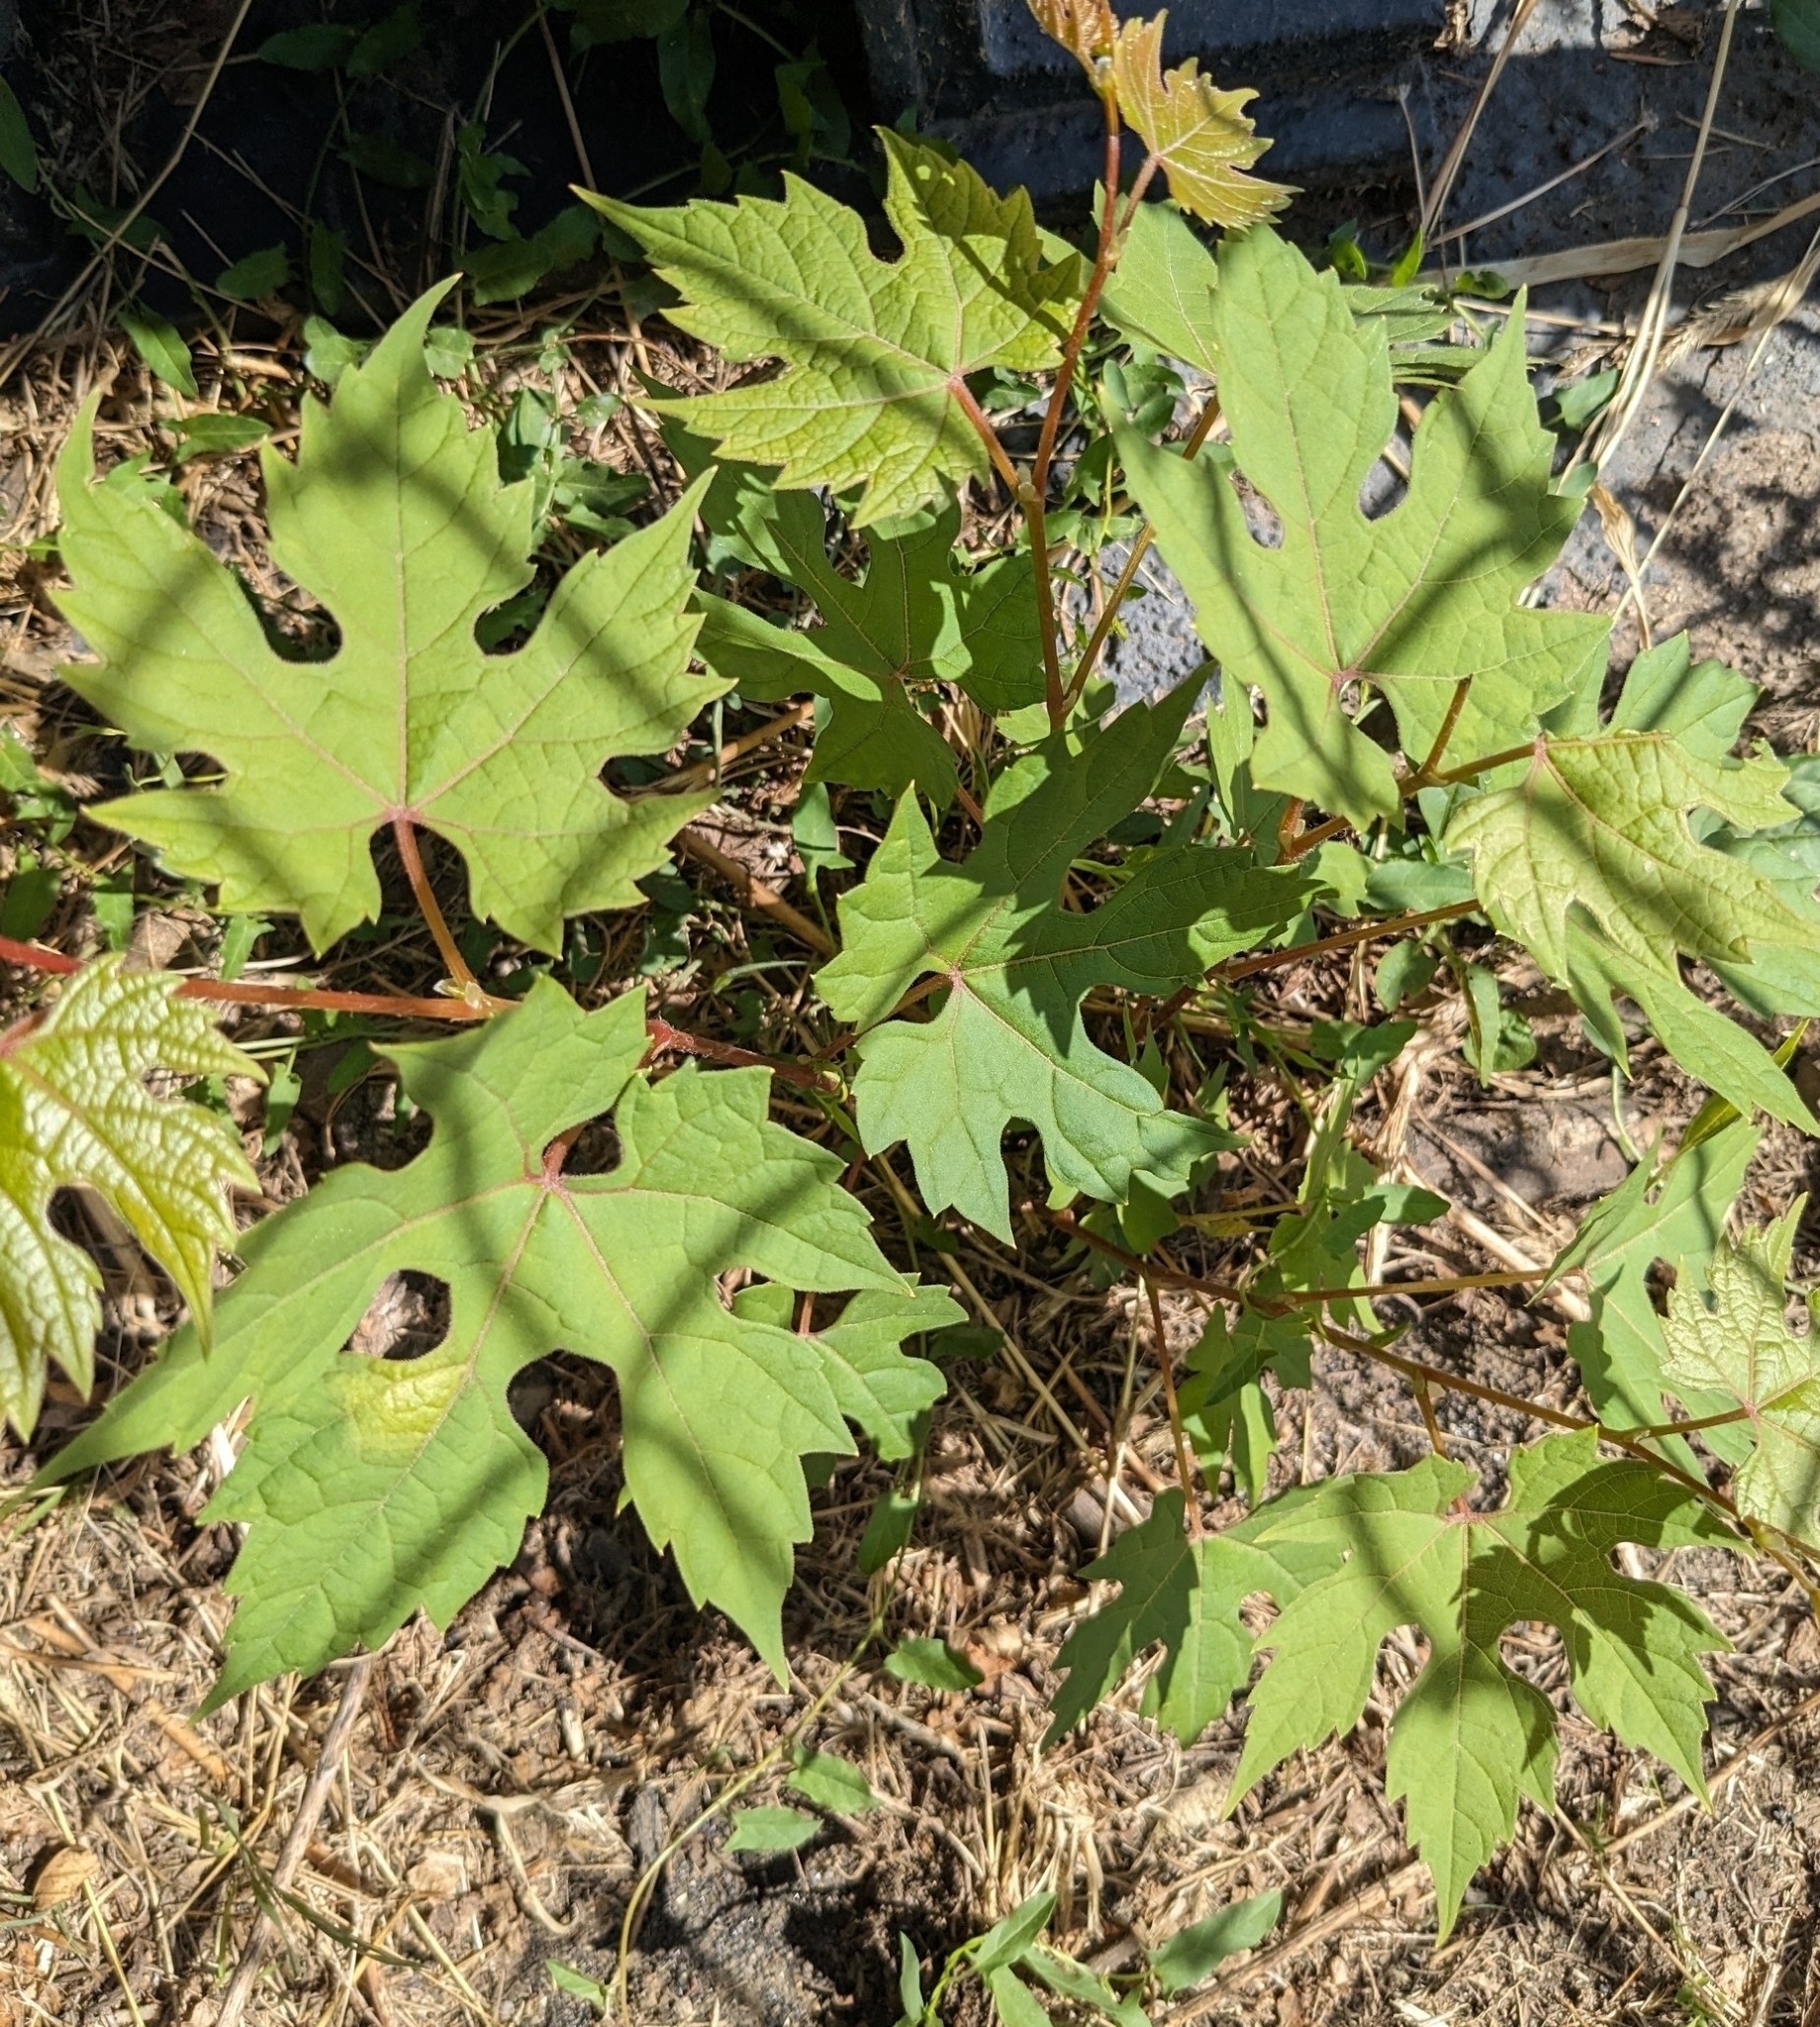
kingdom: Plantae
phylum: Tracheophyta
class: Magnoliopsida
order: Vitales
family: Vitaceae
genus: Vitis
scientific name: Vitis palmata
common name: Catbird grape
